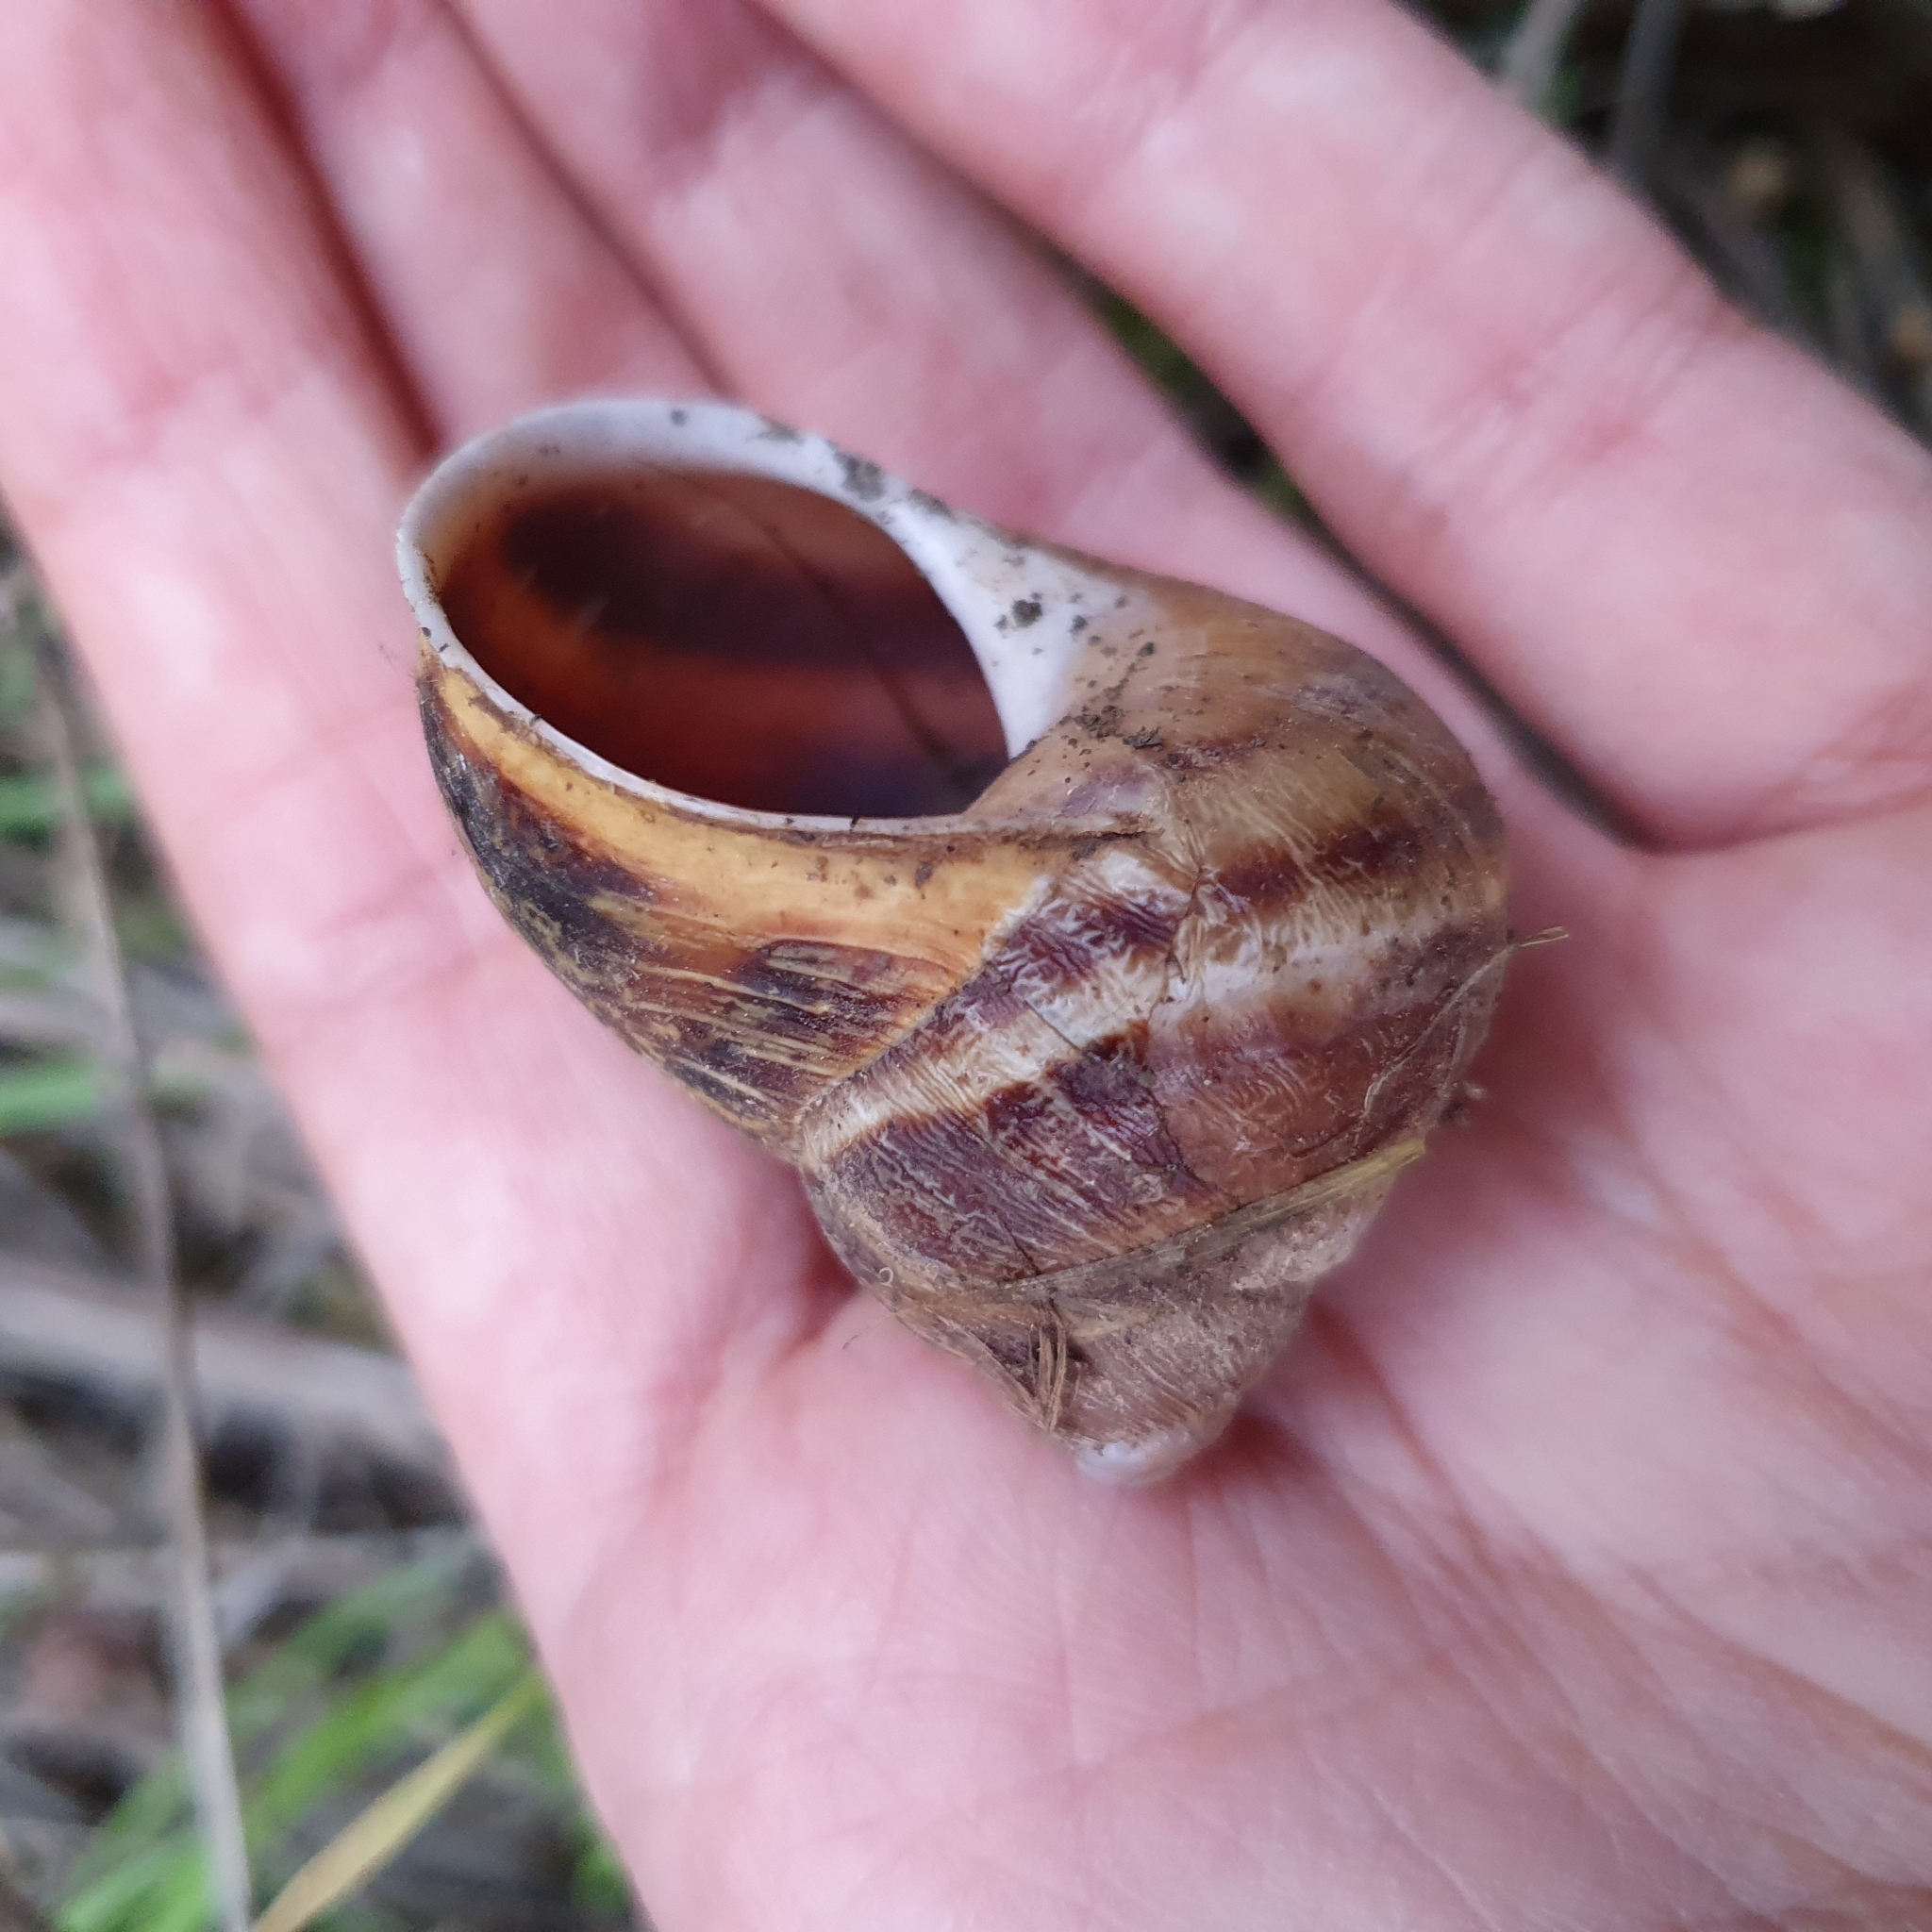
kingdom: Animalia
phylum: Mollusca
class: Gastropoda
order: Stylommatophora
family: Helicidae
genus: Cornu
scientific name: Cornu aspersum
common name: Brown garden snail
